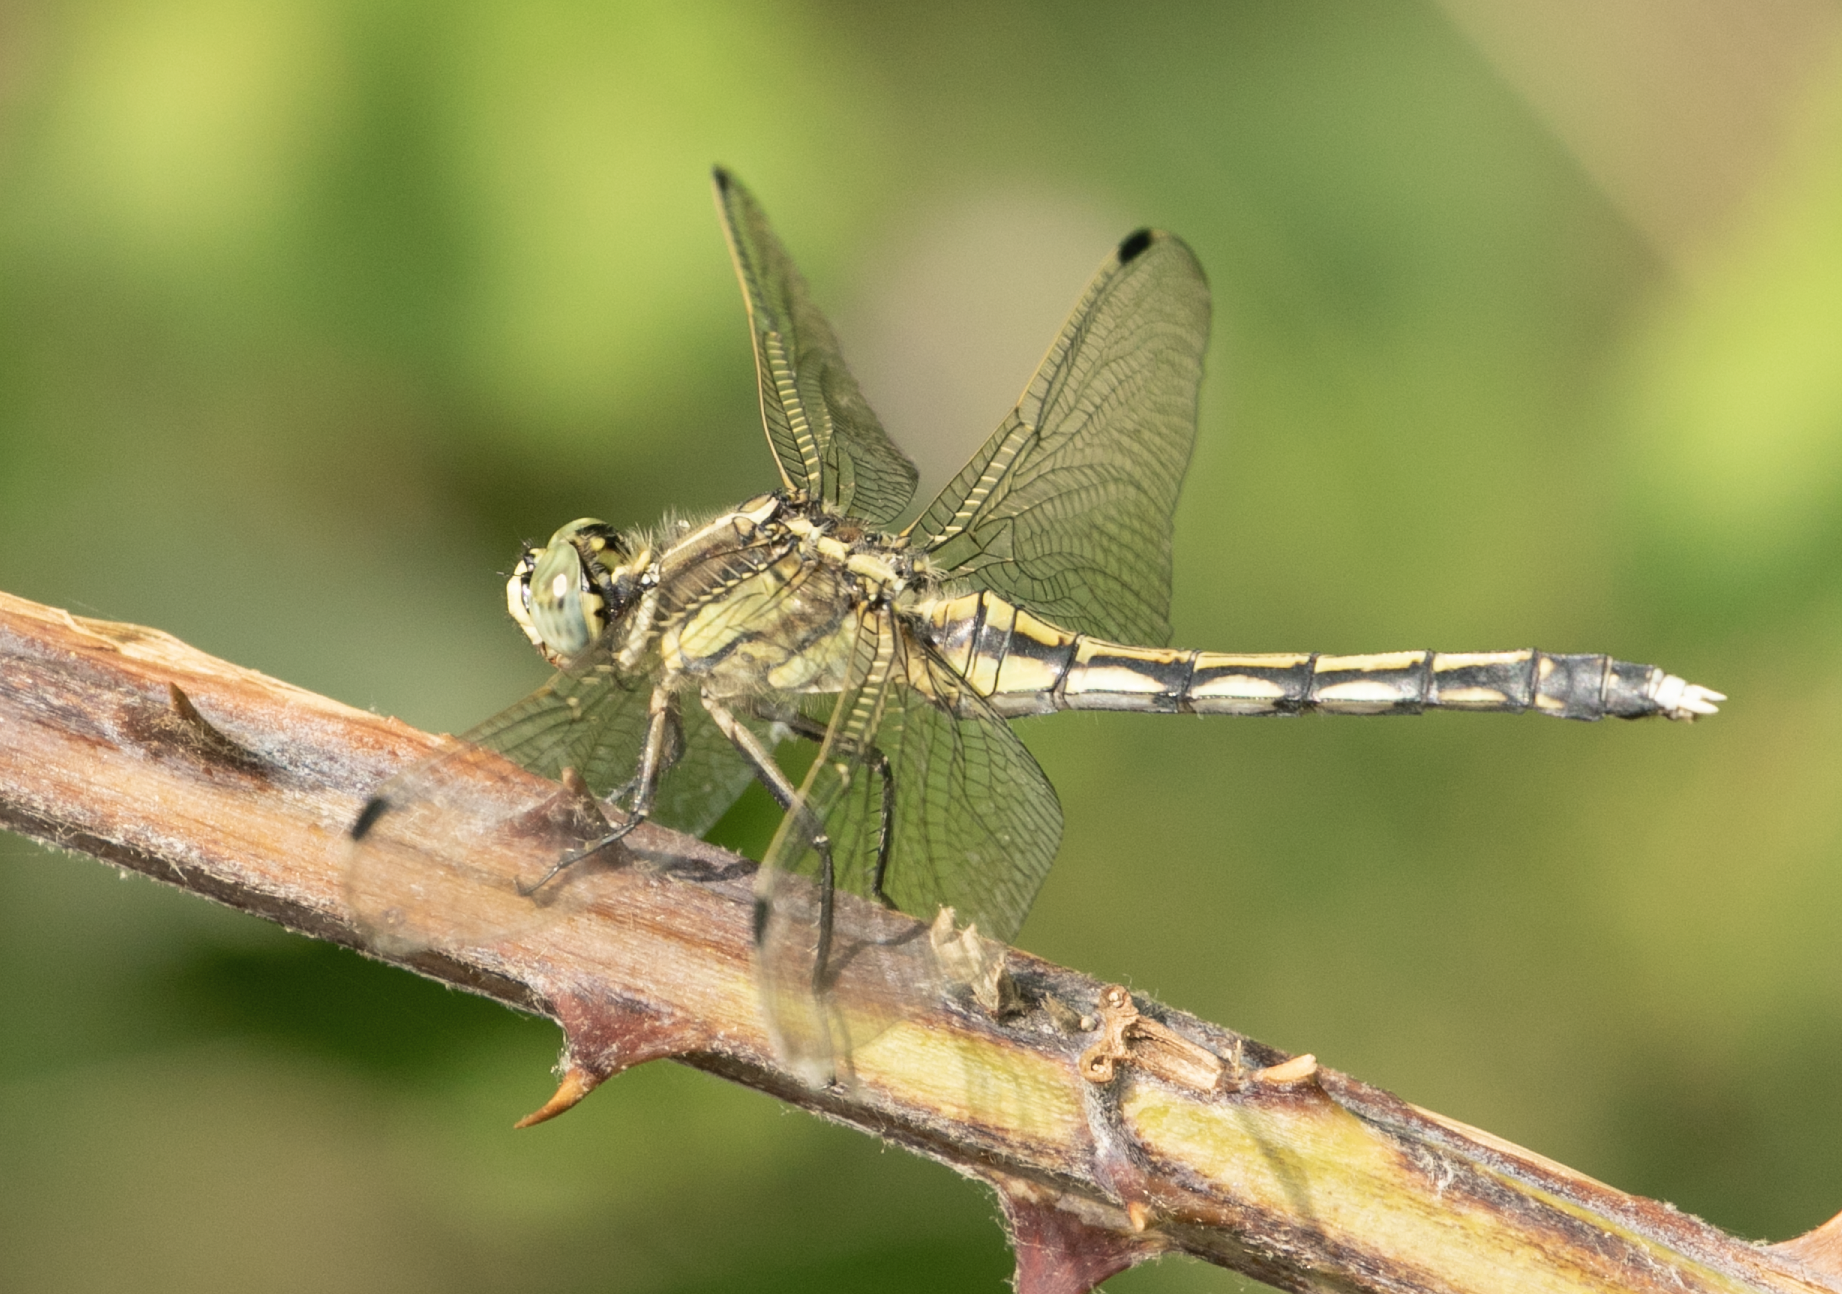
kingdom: Animalia
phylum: Arthropoda
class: Insecta
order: Odonata
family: Libellulidae
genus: Orthetrum
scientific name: Orthetrum albistylum
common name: White-tailed skimmer
